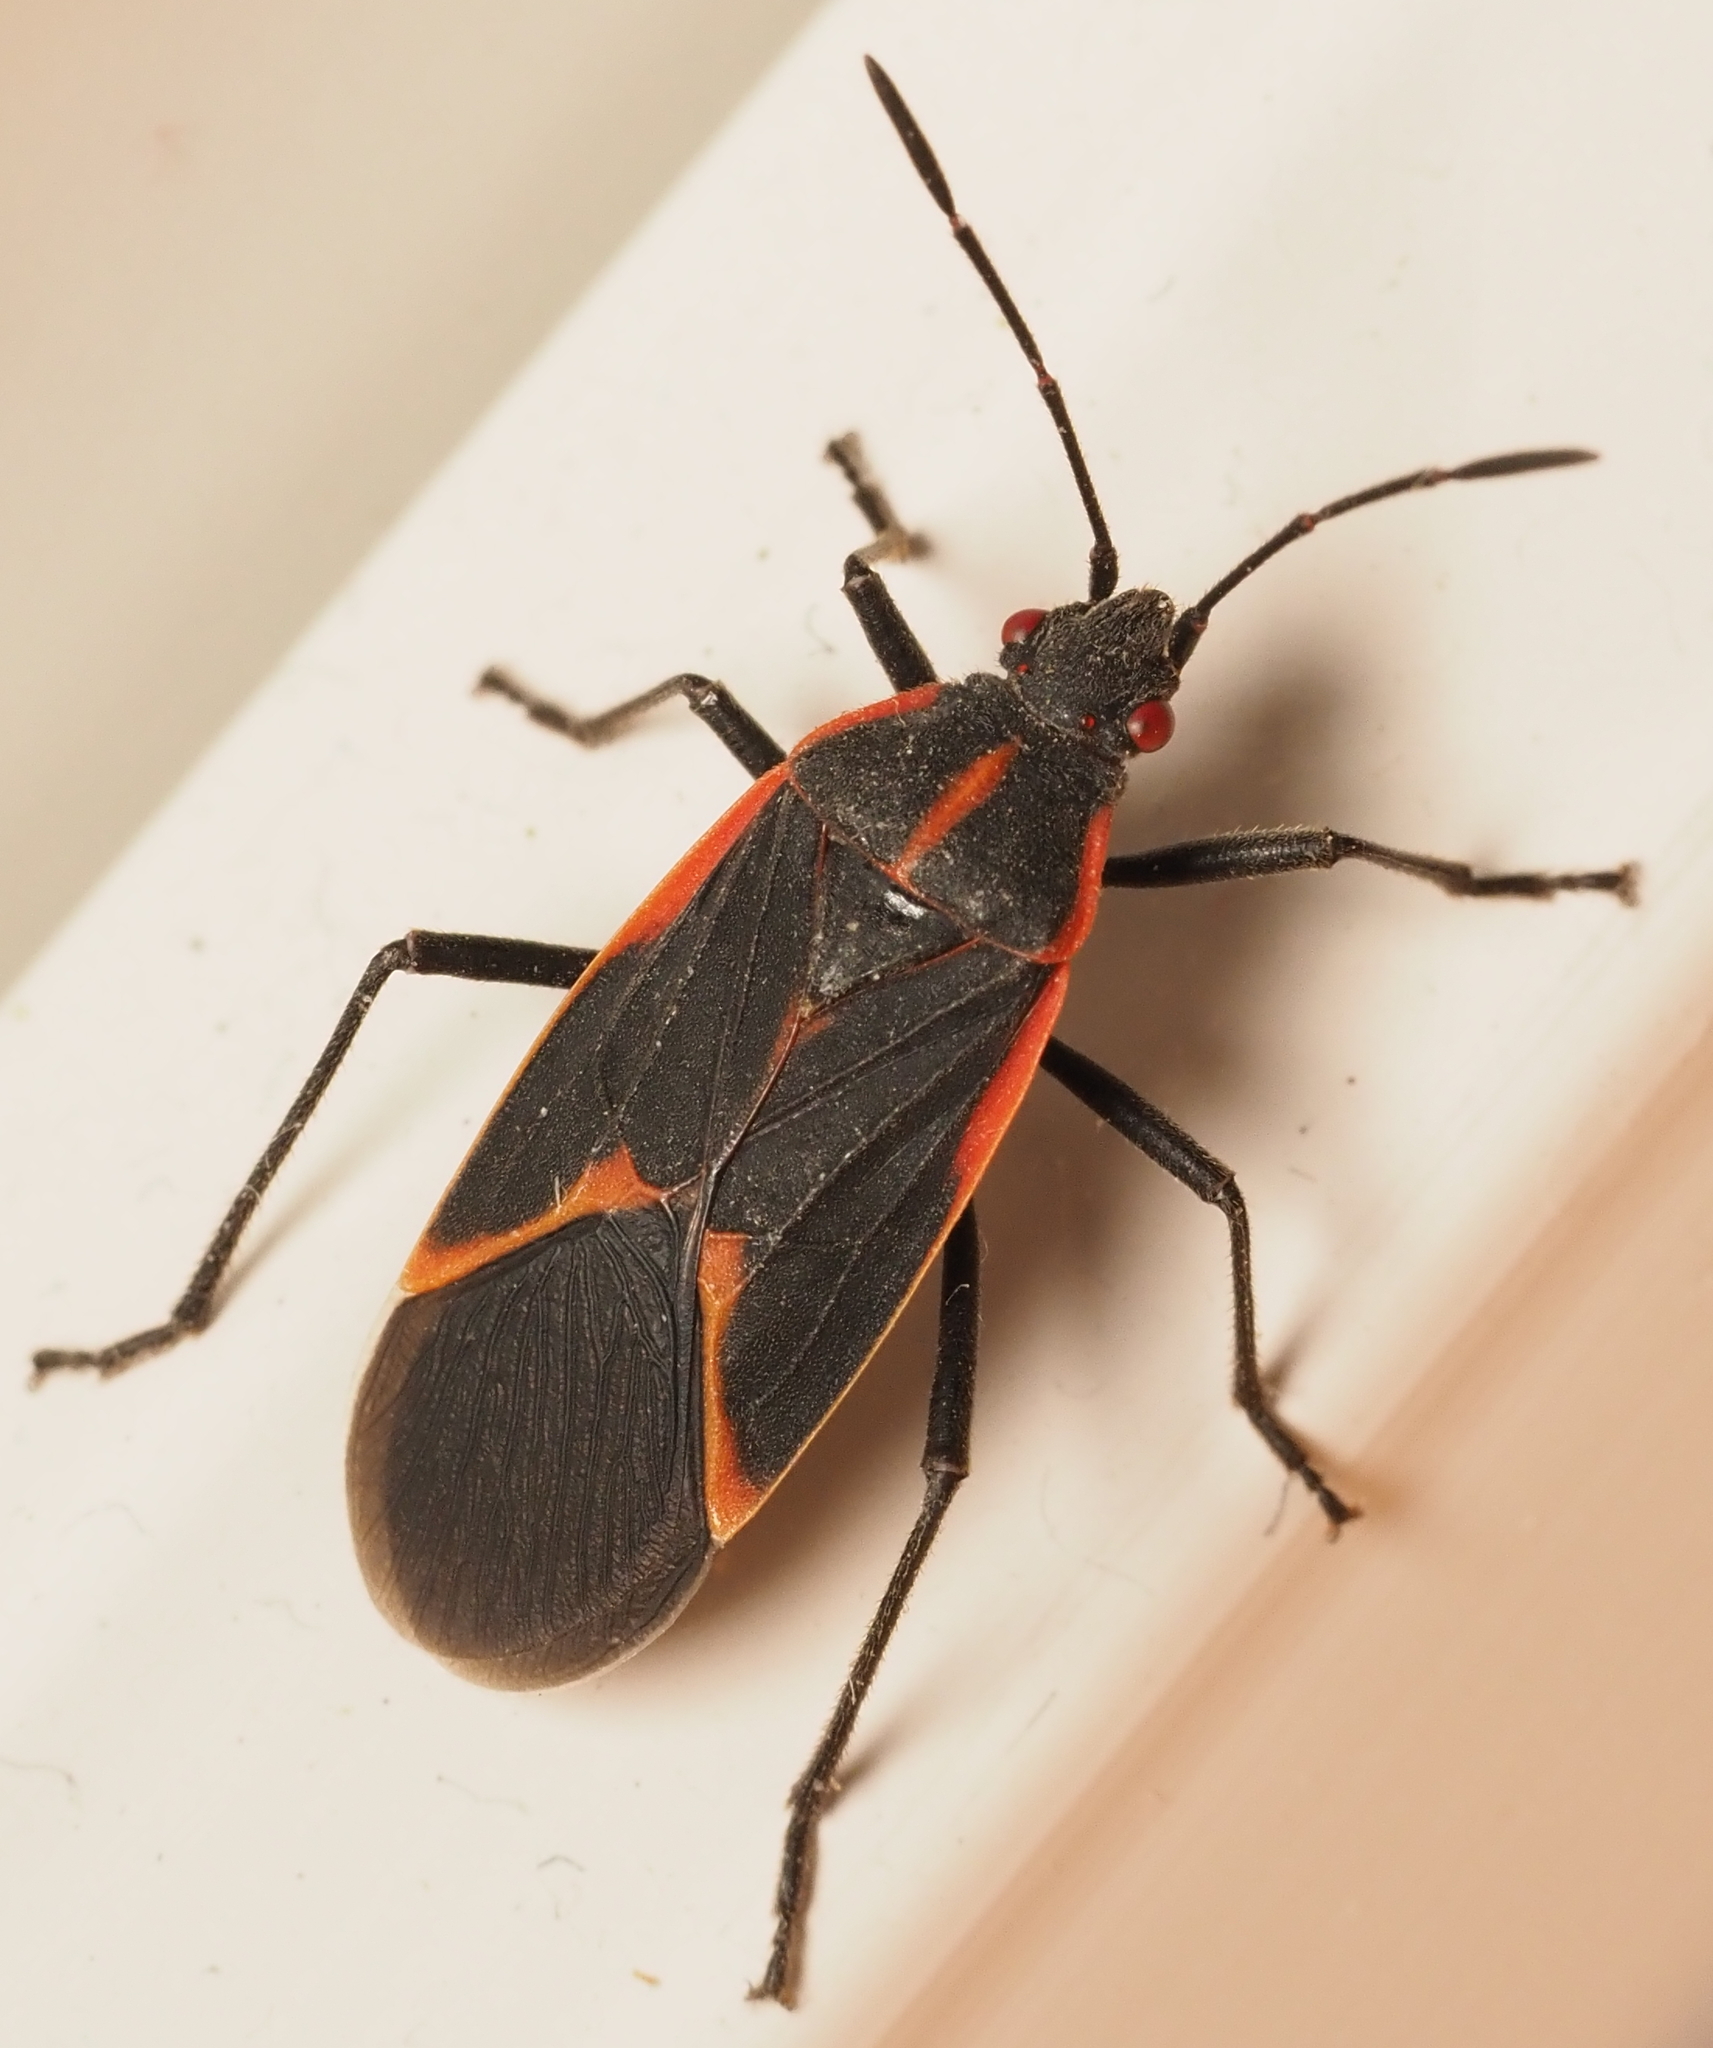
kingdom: Animalia
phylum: Arthropoda
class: Insecta
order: Hemiptera
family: Rhopalidae
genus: Boisea
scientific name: Boisea trivittata
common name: Boxelder bug
